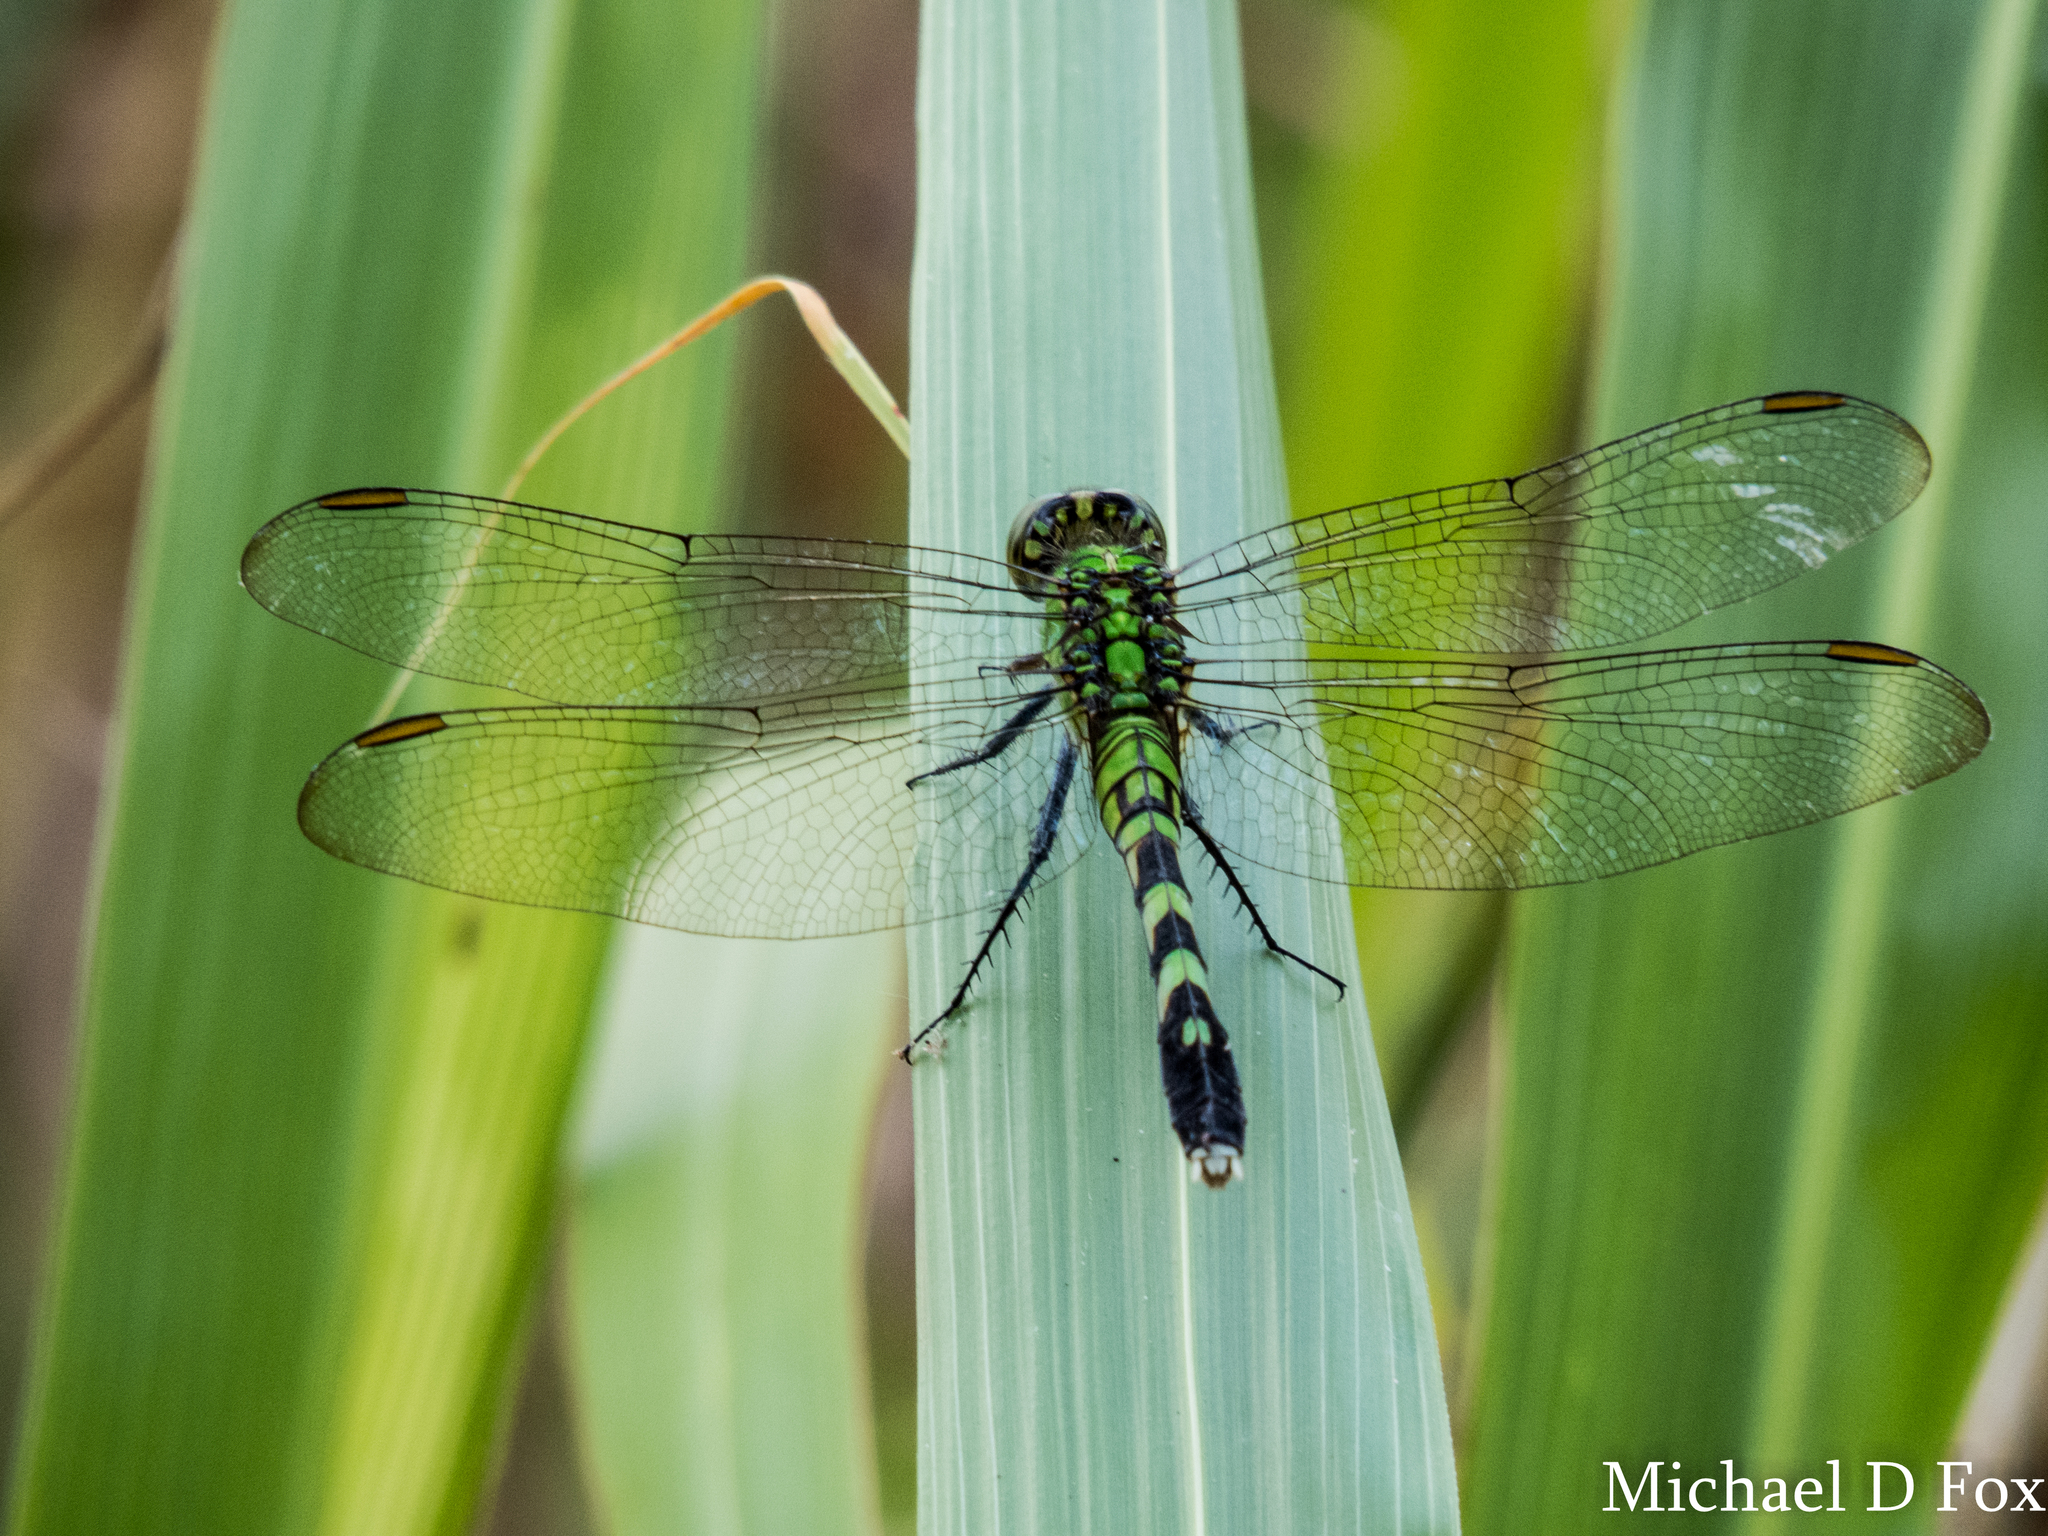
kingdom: Animalia
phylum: Arthropoda
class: Insecta
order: Odonata
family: Libellulidae
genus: Erythemis
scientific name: Erythemis simplicicollis
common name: Eastern pondhawk
